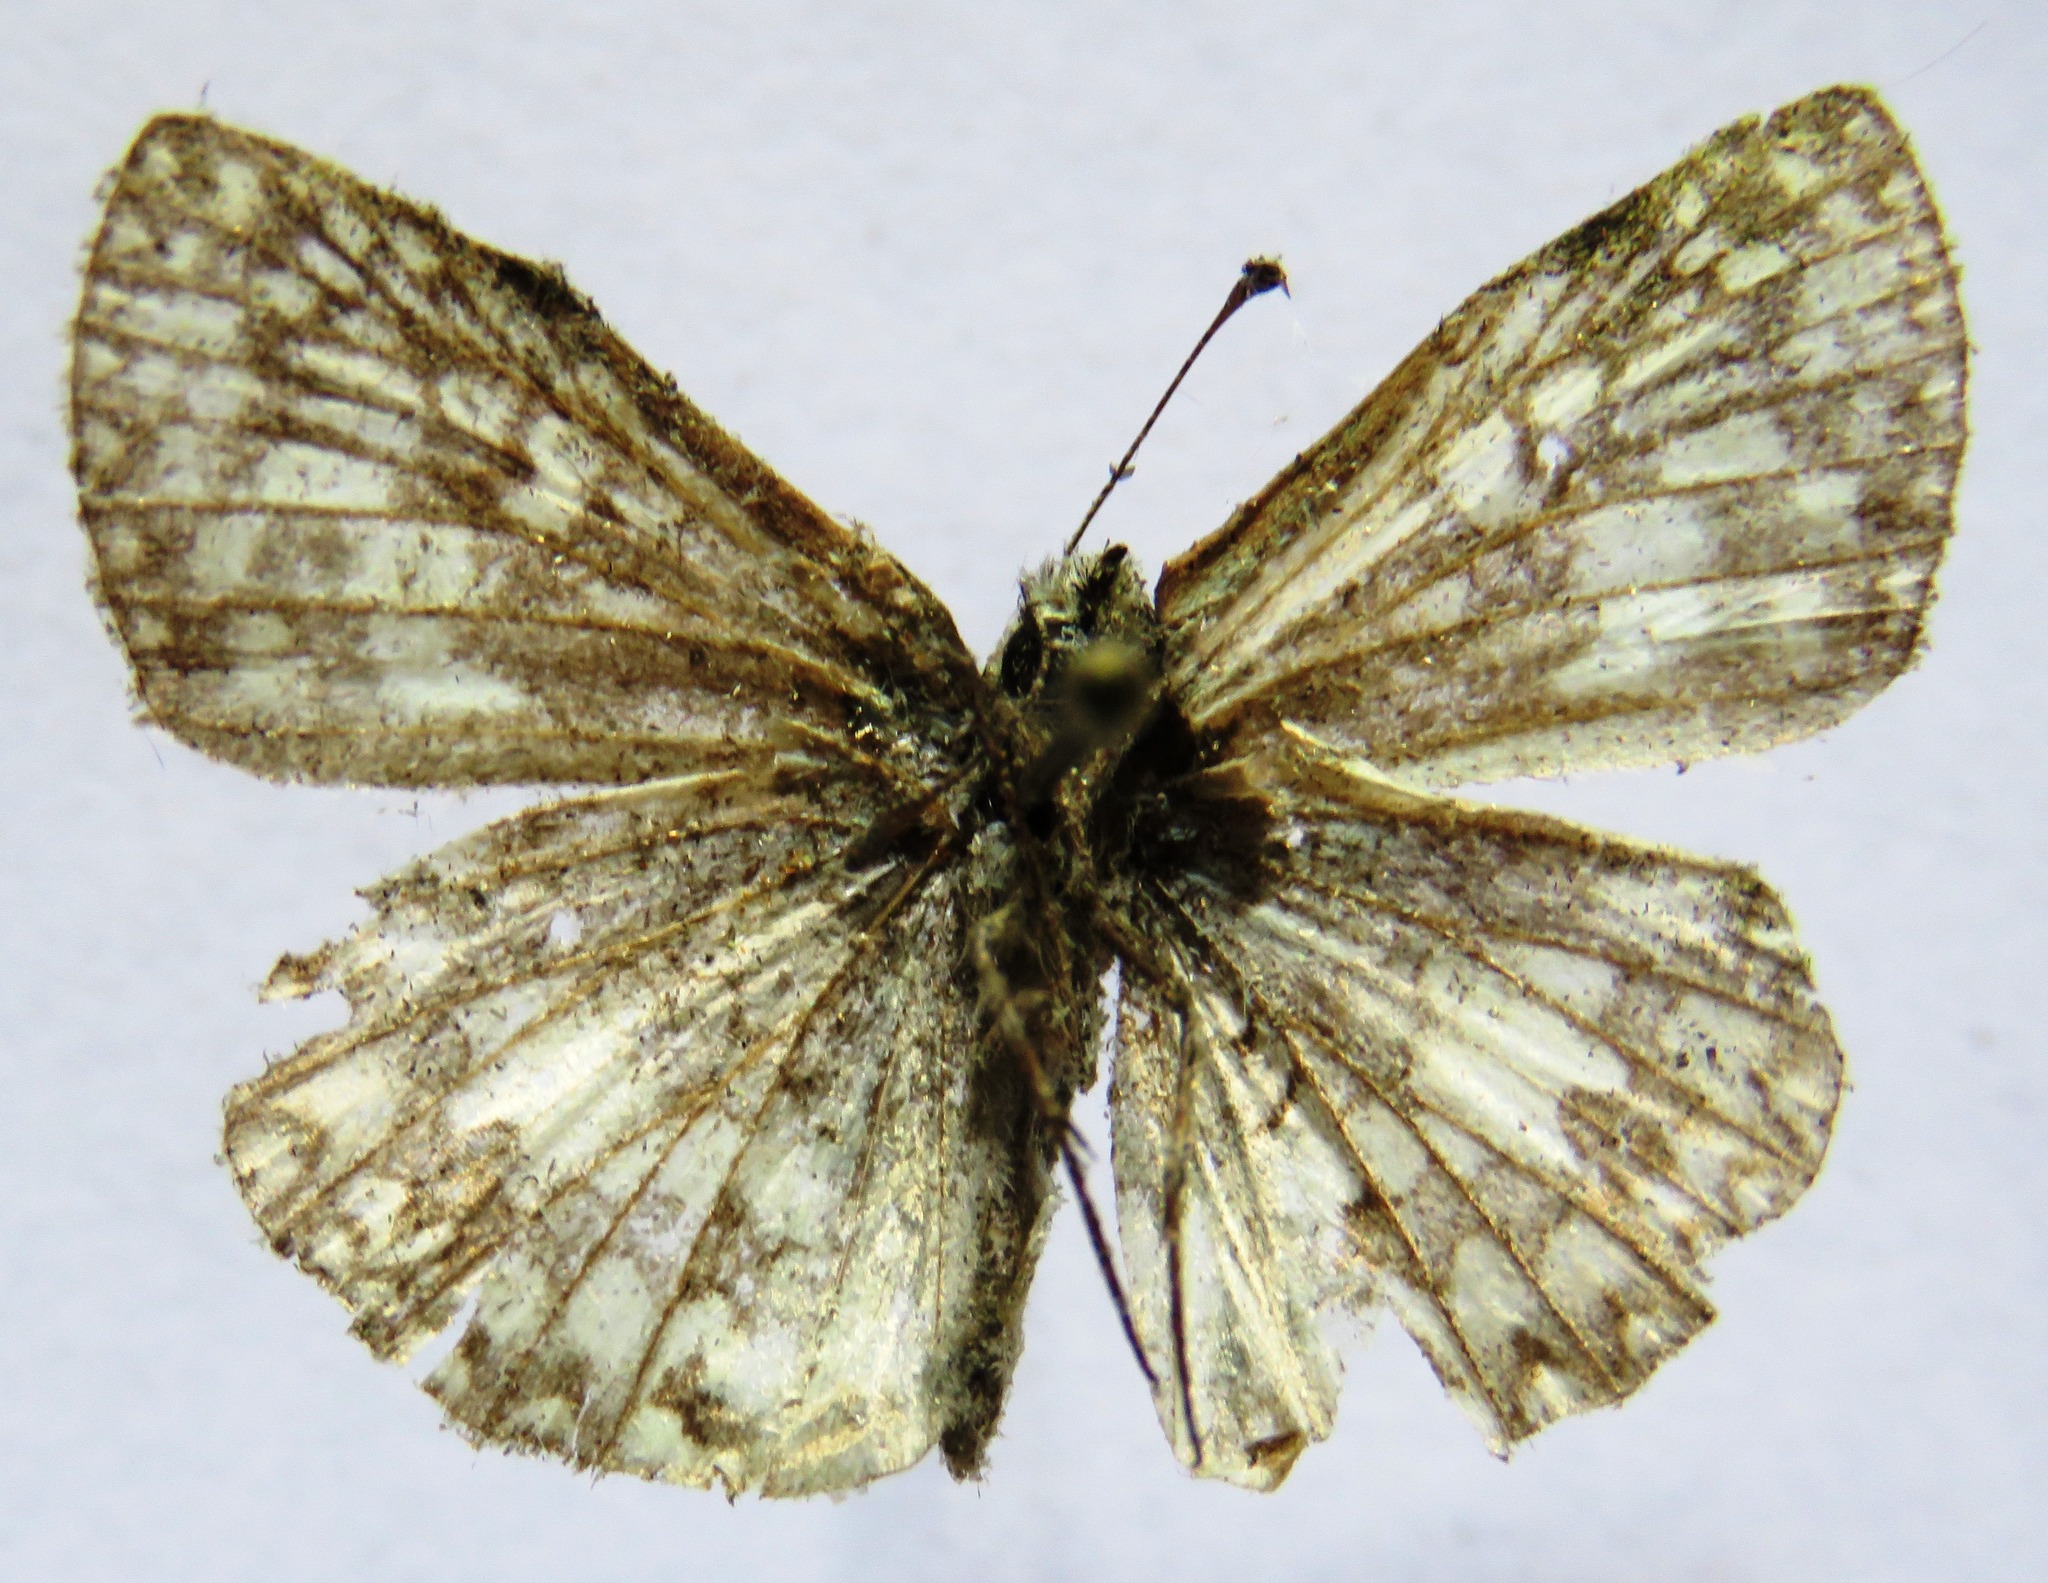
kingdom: Animalia
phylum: Arthropoda
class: Insecta
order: Lepidoptera
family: Hesperiidae
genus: Pyrgus
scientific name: Pyrgus oileus
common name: Tropical checkered-skipper
